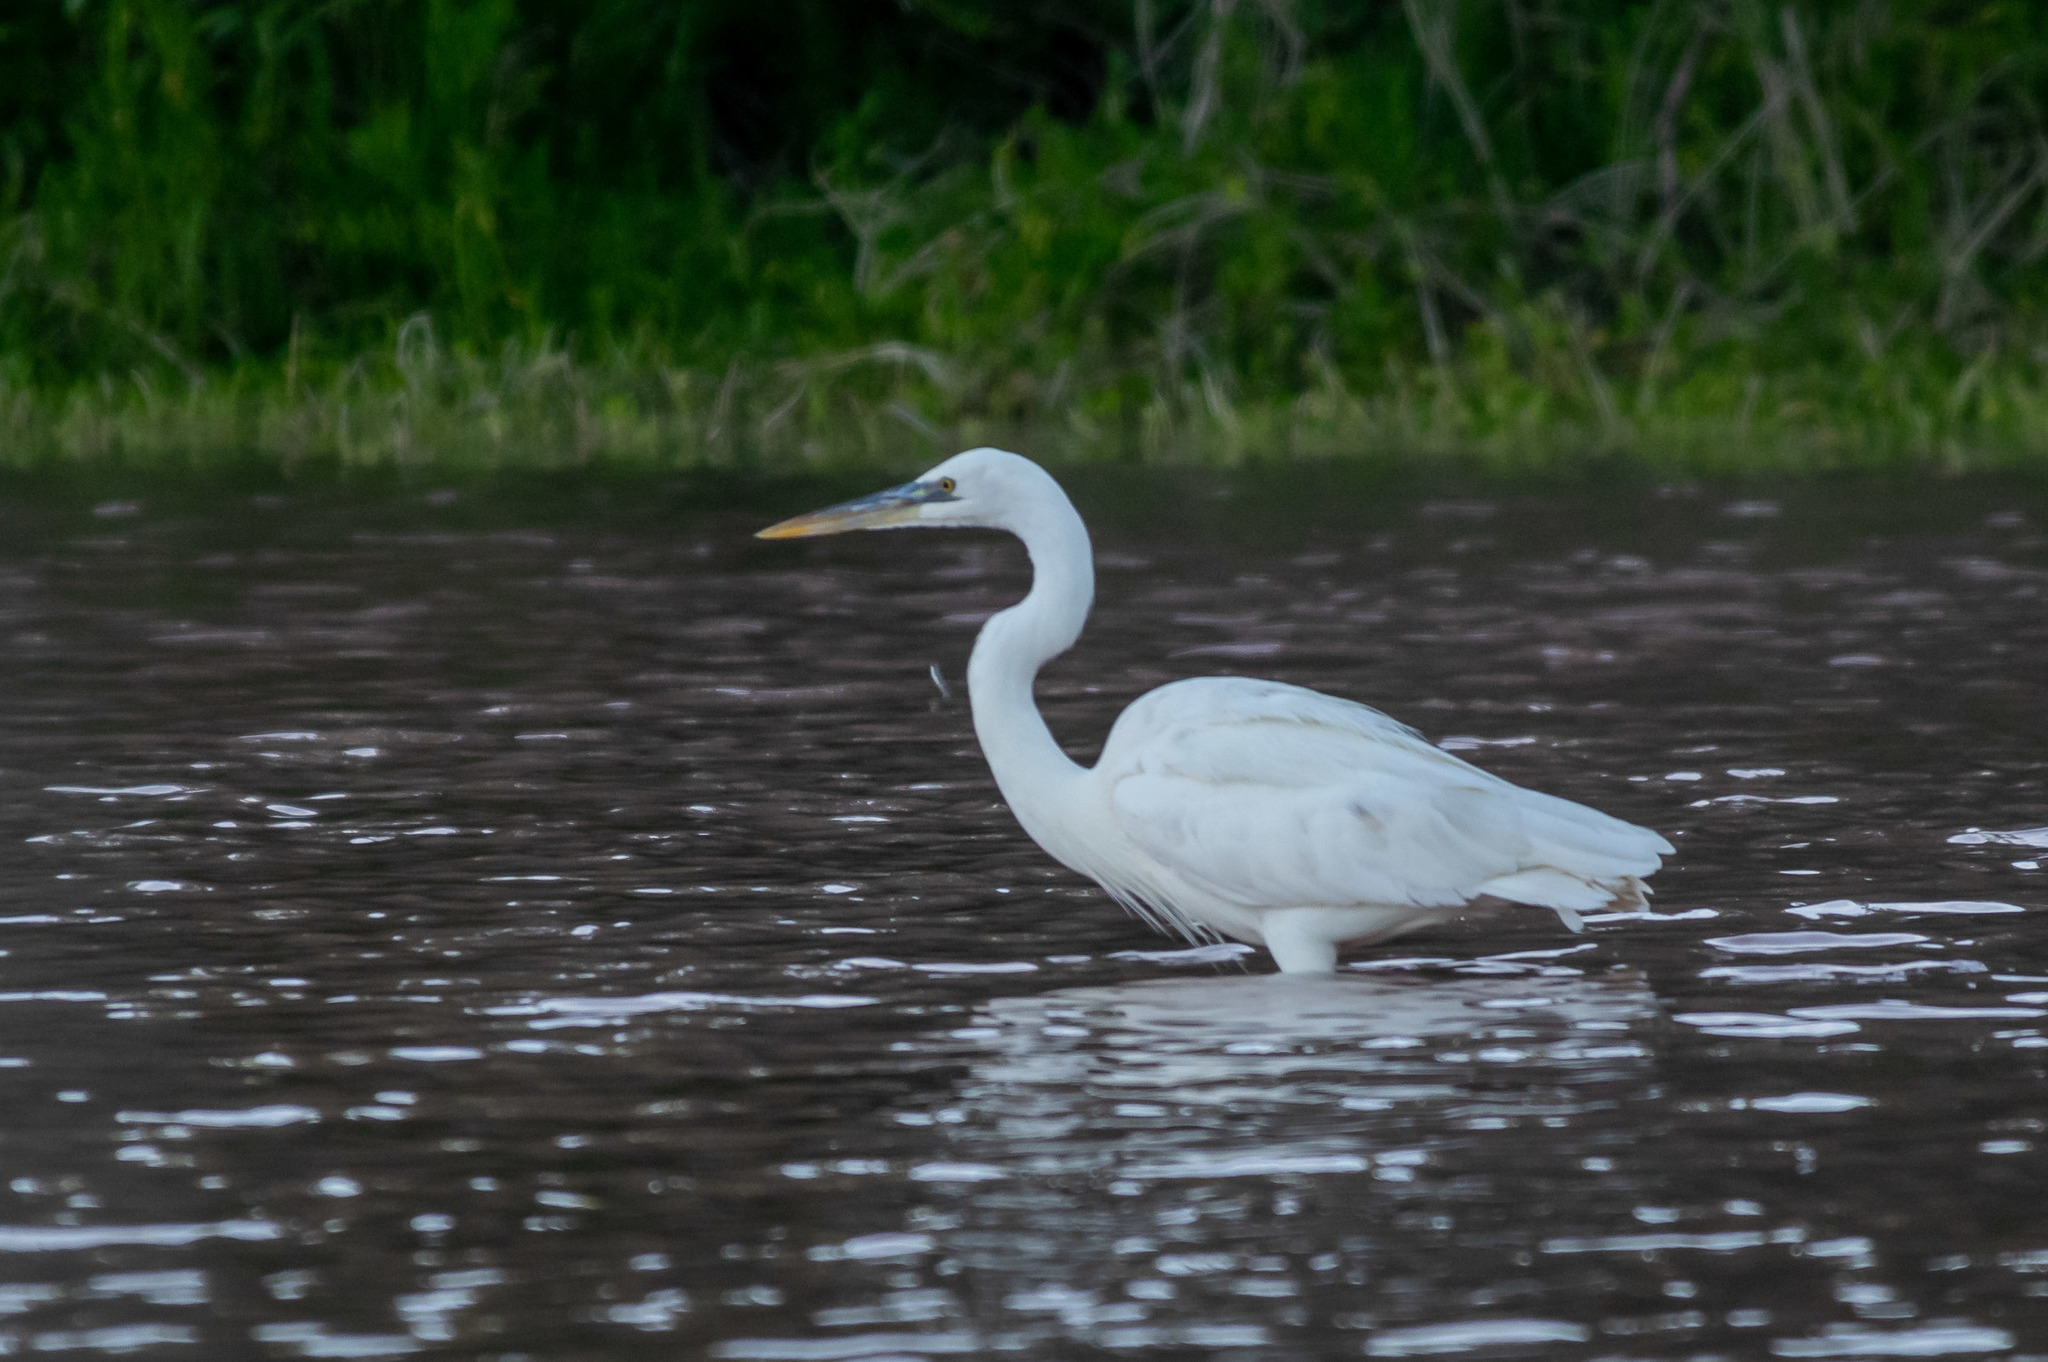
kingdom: Animalia
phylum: Chordata
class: Aves
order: Pelecaniformes
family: Ardeidae
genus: Ardea
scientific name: Ardea herodias
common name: Great blue heron
